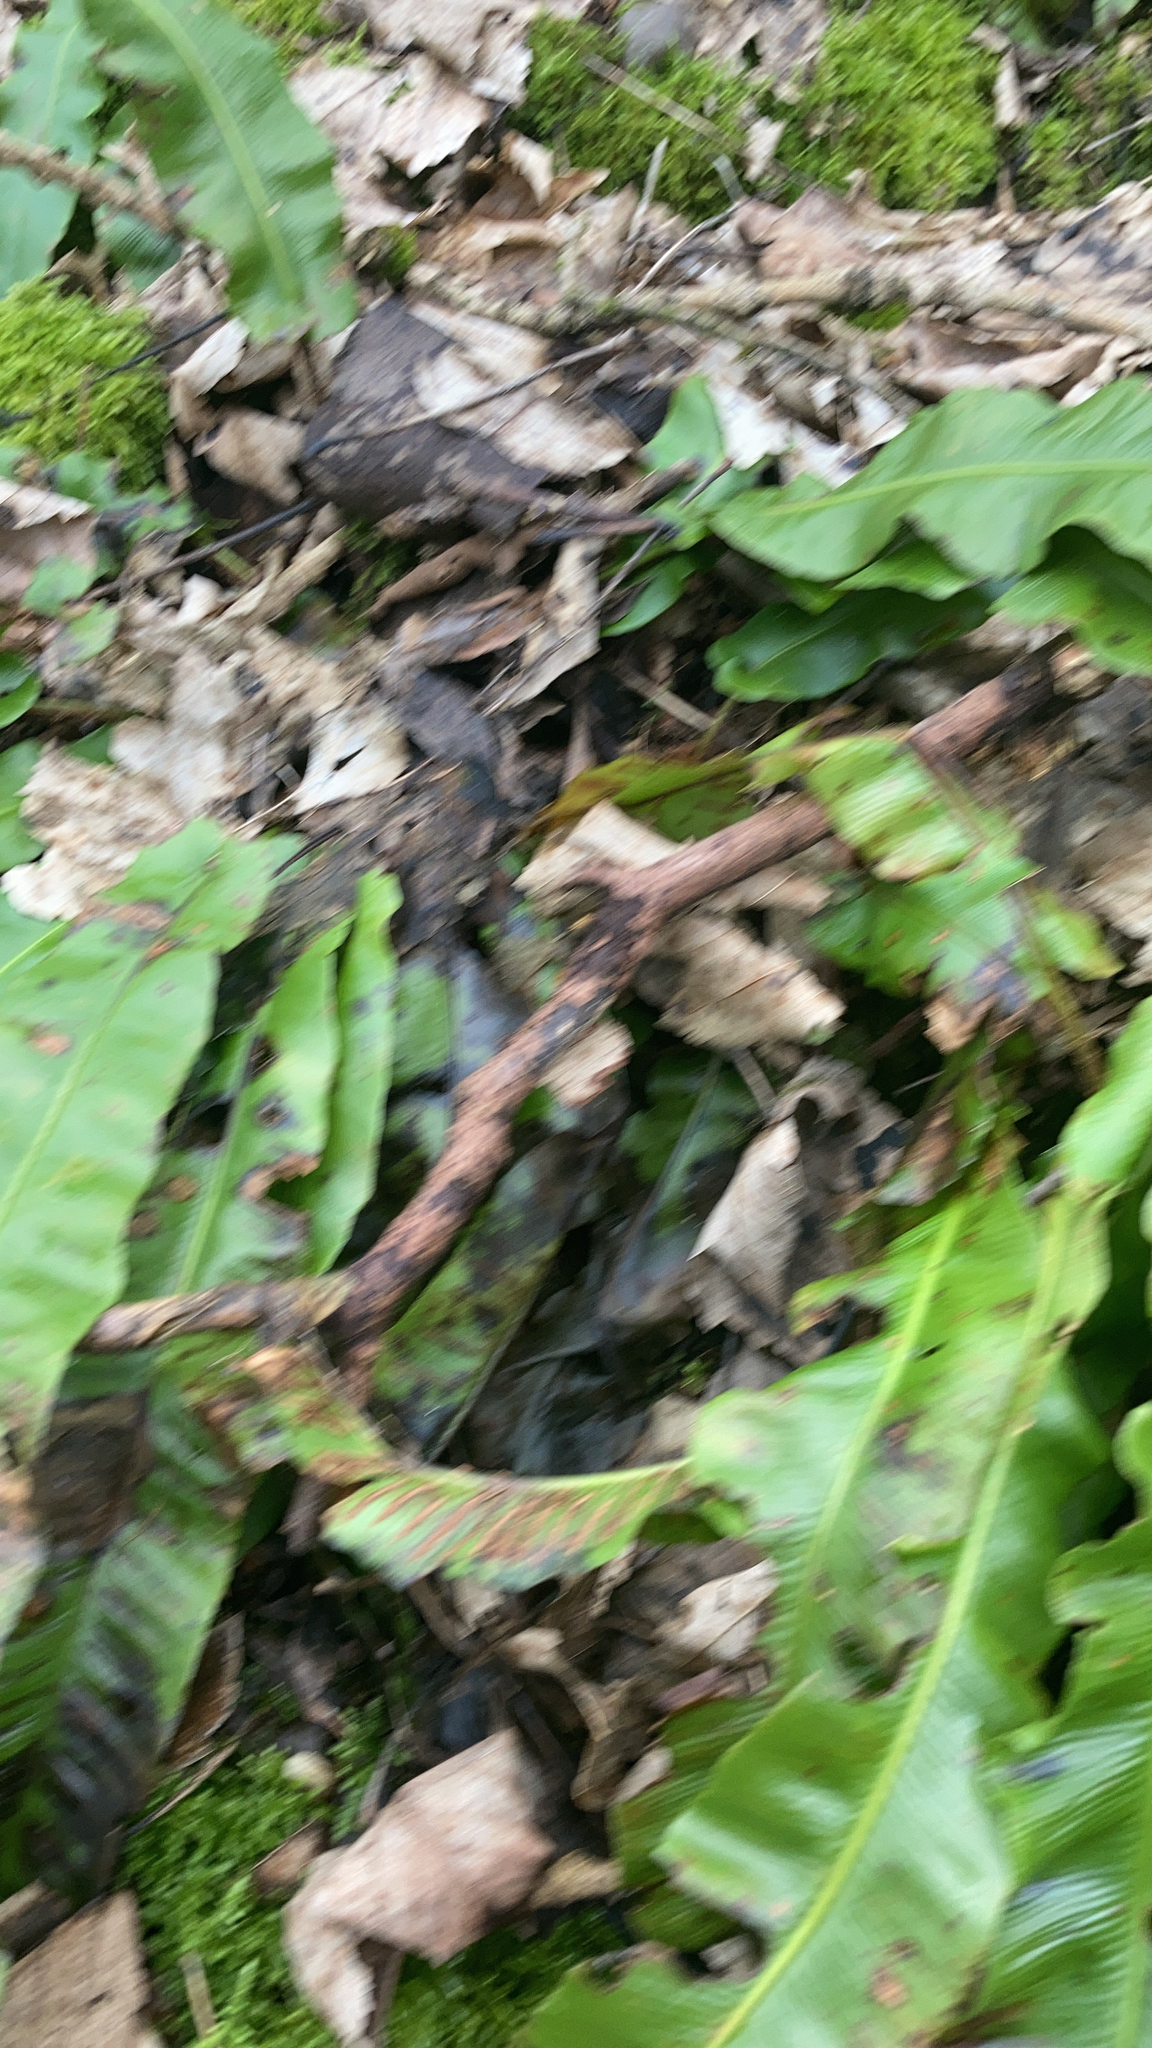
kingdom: Plantae
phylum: Tracheophyta
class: Polypodiopsida
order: Polypodiales
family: Aspleniaceae
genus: Asplenium
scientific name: Asplenium scolopendrium
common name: Hart's-tongue fern
